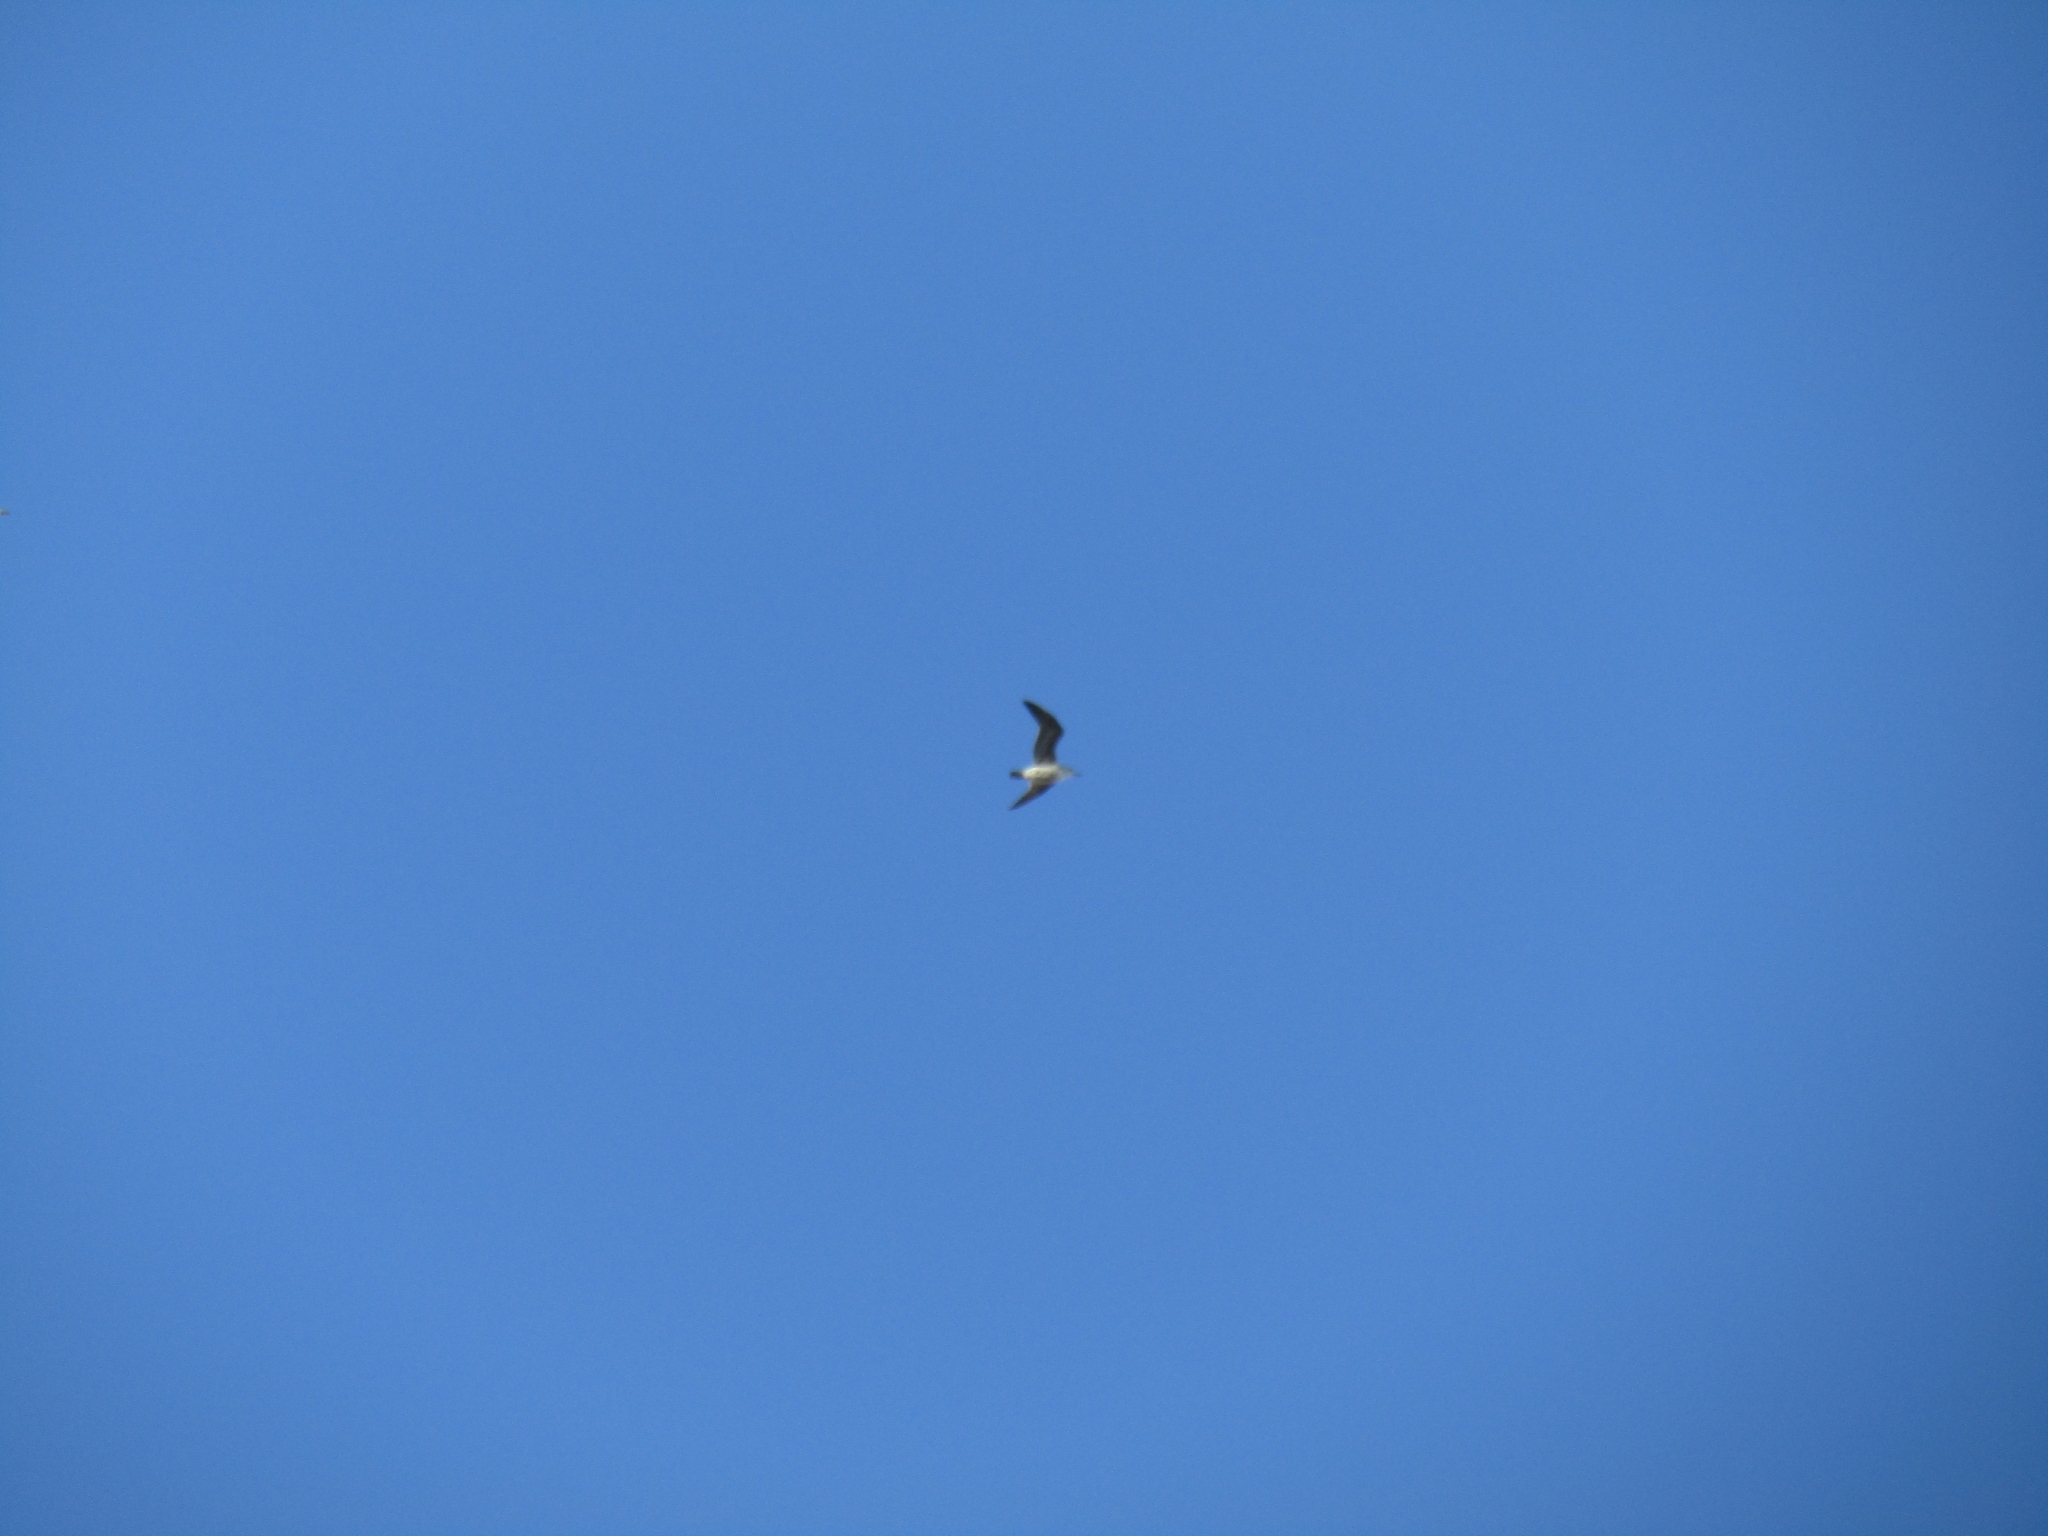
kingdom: Animalia
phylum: Chordata
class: Aves
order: Charadriiformes
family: Laridae
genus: Larus
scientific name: Larus dominicanus
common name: Kelp gull
